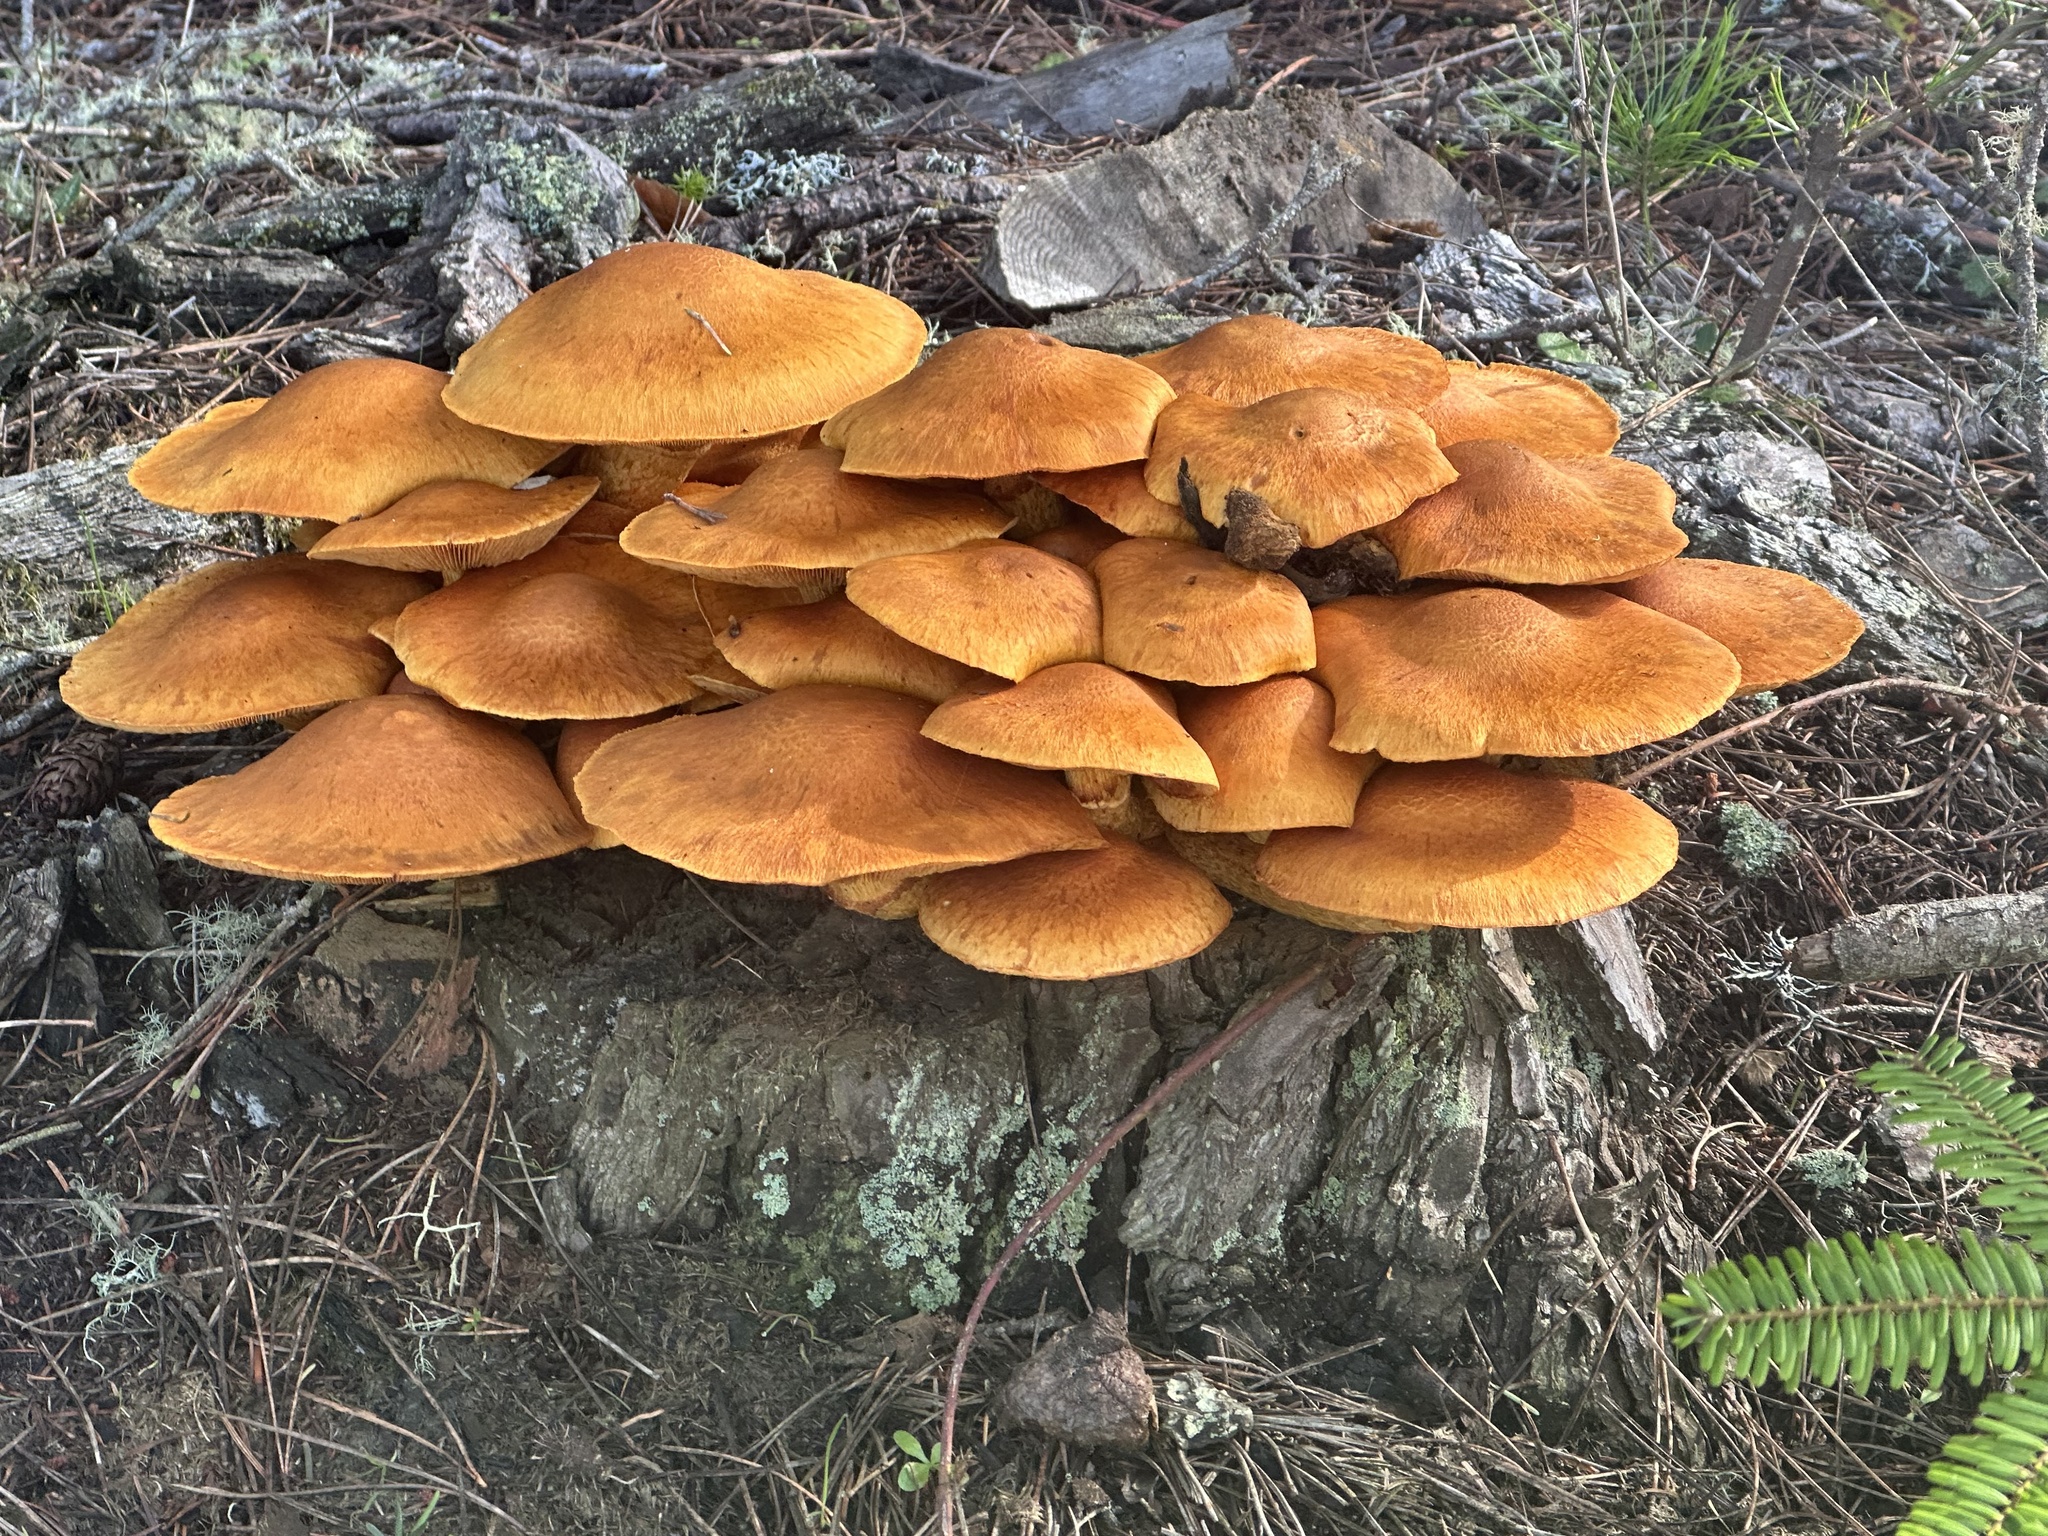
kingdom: Fungi
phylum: Basidiomycota
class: Agaricomycetes
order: Agaricales
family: Hymenogastraceae
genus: Gymnopilus
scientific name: Gymnopilus ventricosus
